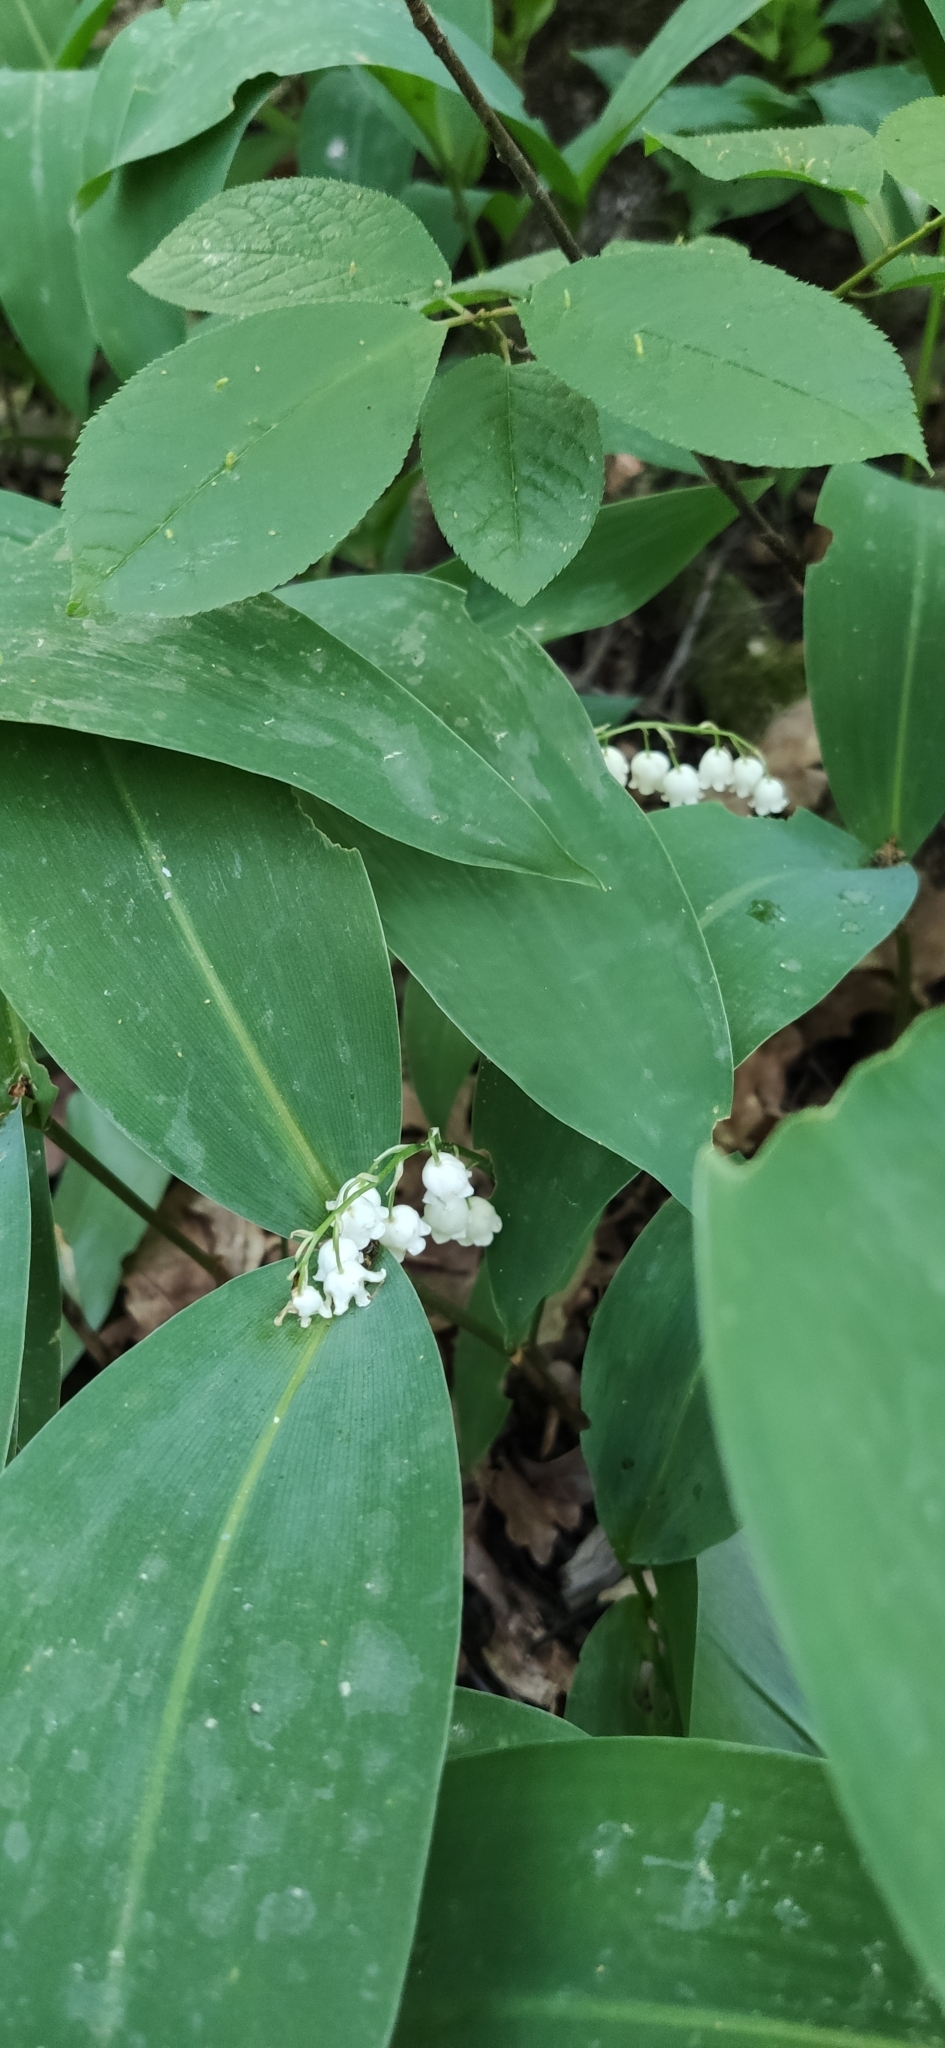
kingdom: Plantae
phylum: Tracheophyta
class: Liliopsida
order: Asparagales
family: Asparagaceae
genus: Convallaria
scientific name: Convallaria majalis
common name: Lily-of-the-valley
